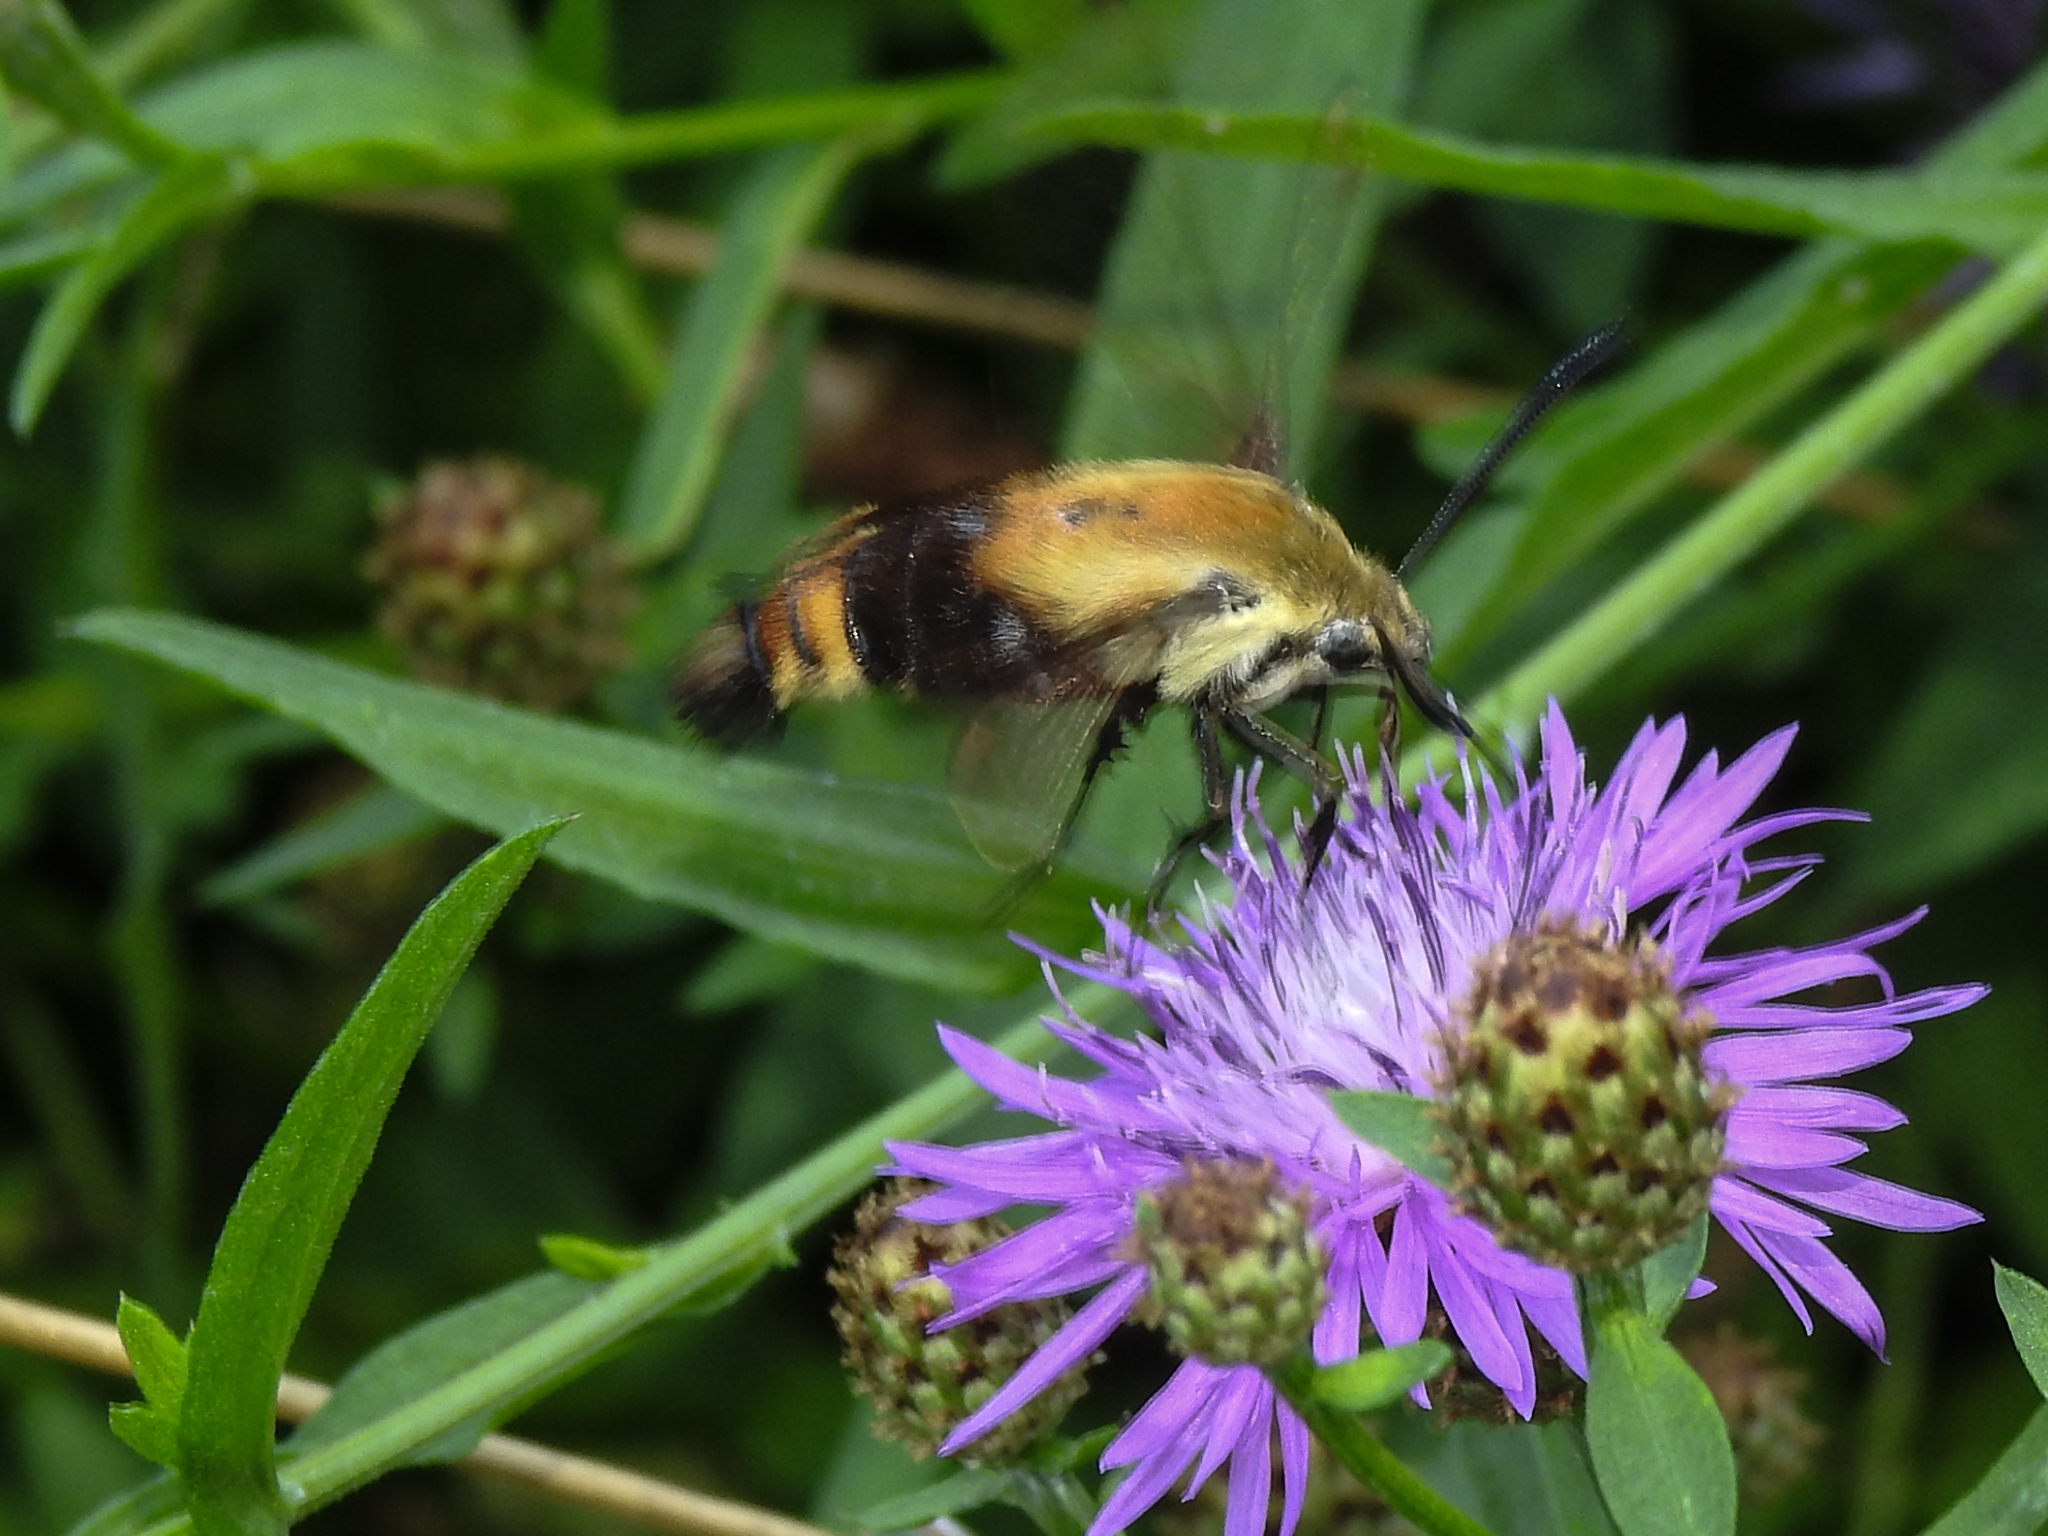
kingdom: Animalia
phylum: Arthropoda
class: Insecta
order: Lepidoptera
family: Sphingidae
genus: Hemaris
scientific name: Hemaris diffinis
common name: Bumblebee moth
